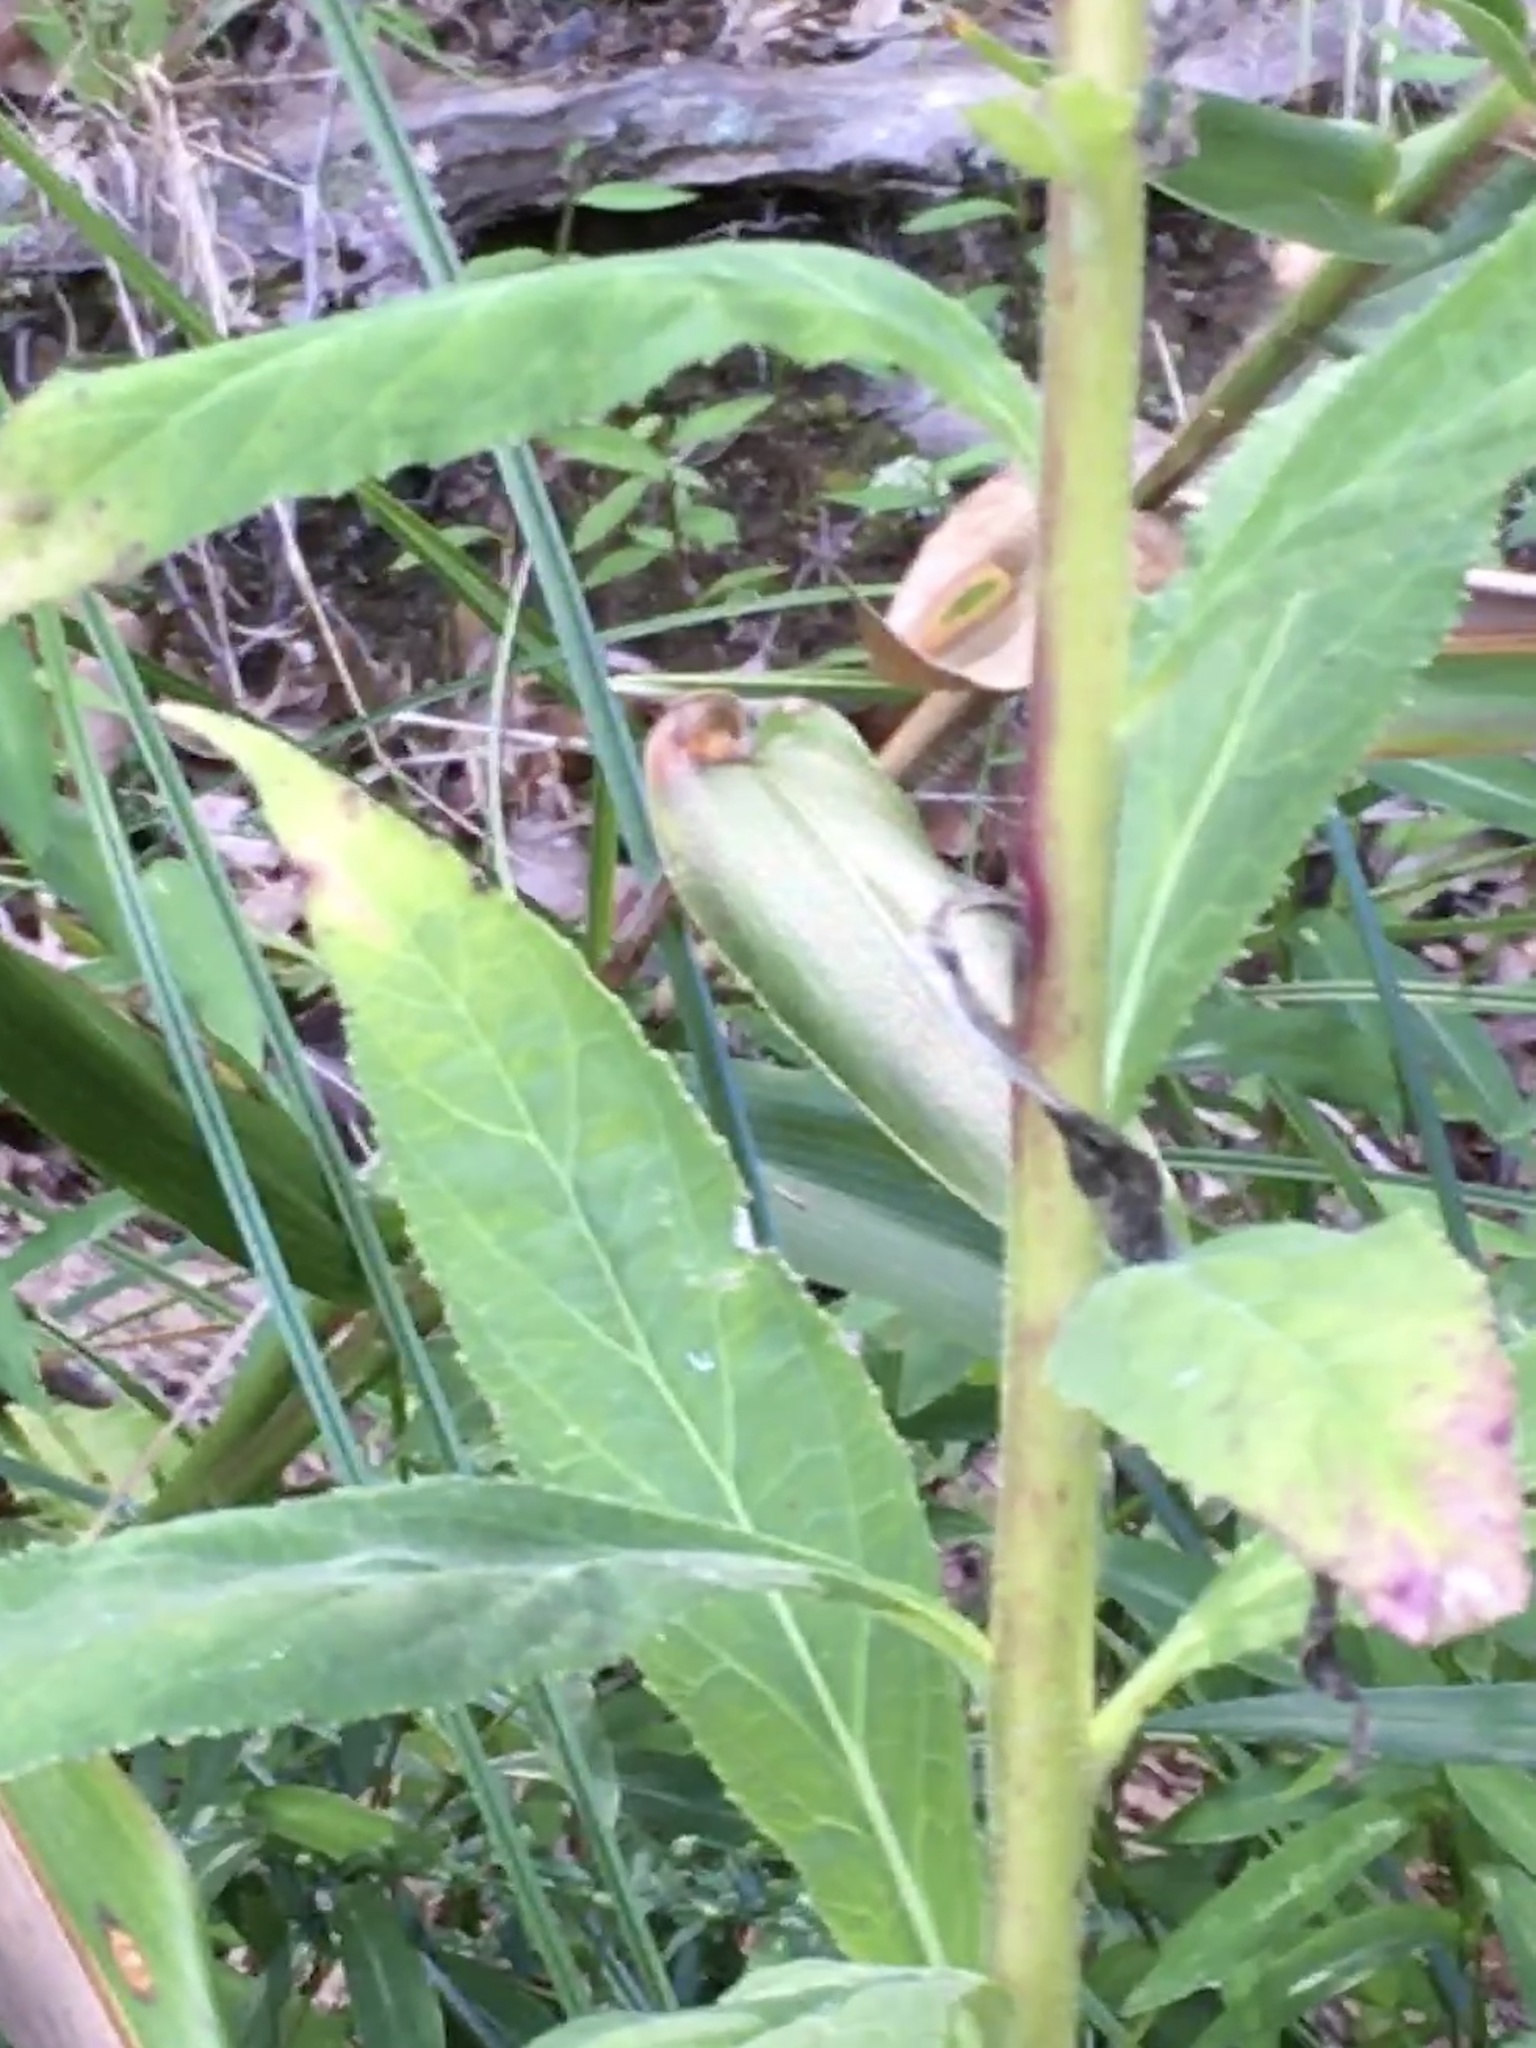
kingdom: Plantae
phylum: Tracheophyta
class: Magnoliopsida
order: Asterales
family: Campanulaceae
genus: Lobelia
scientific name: Lobelia cardinalis
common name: Cardinal flower
